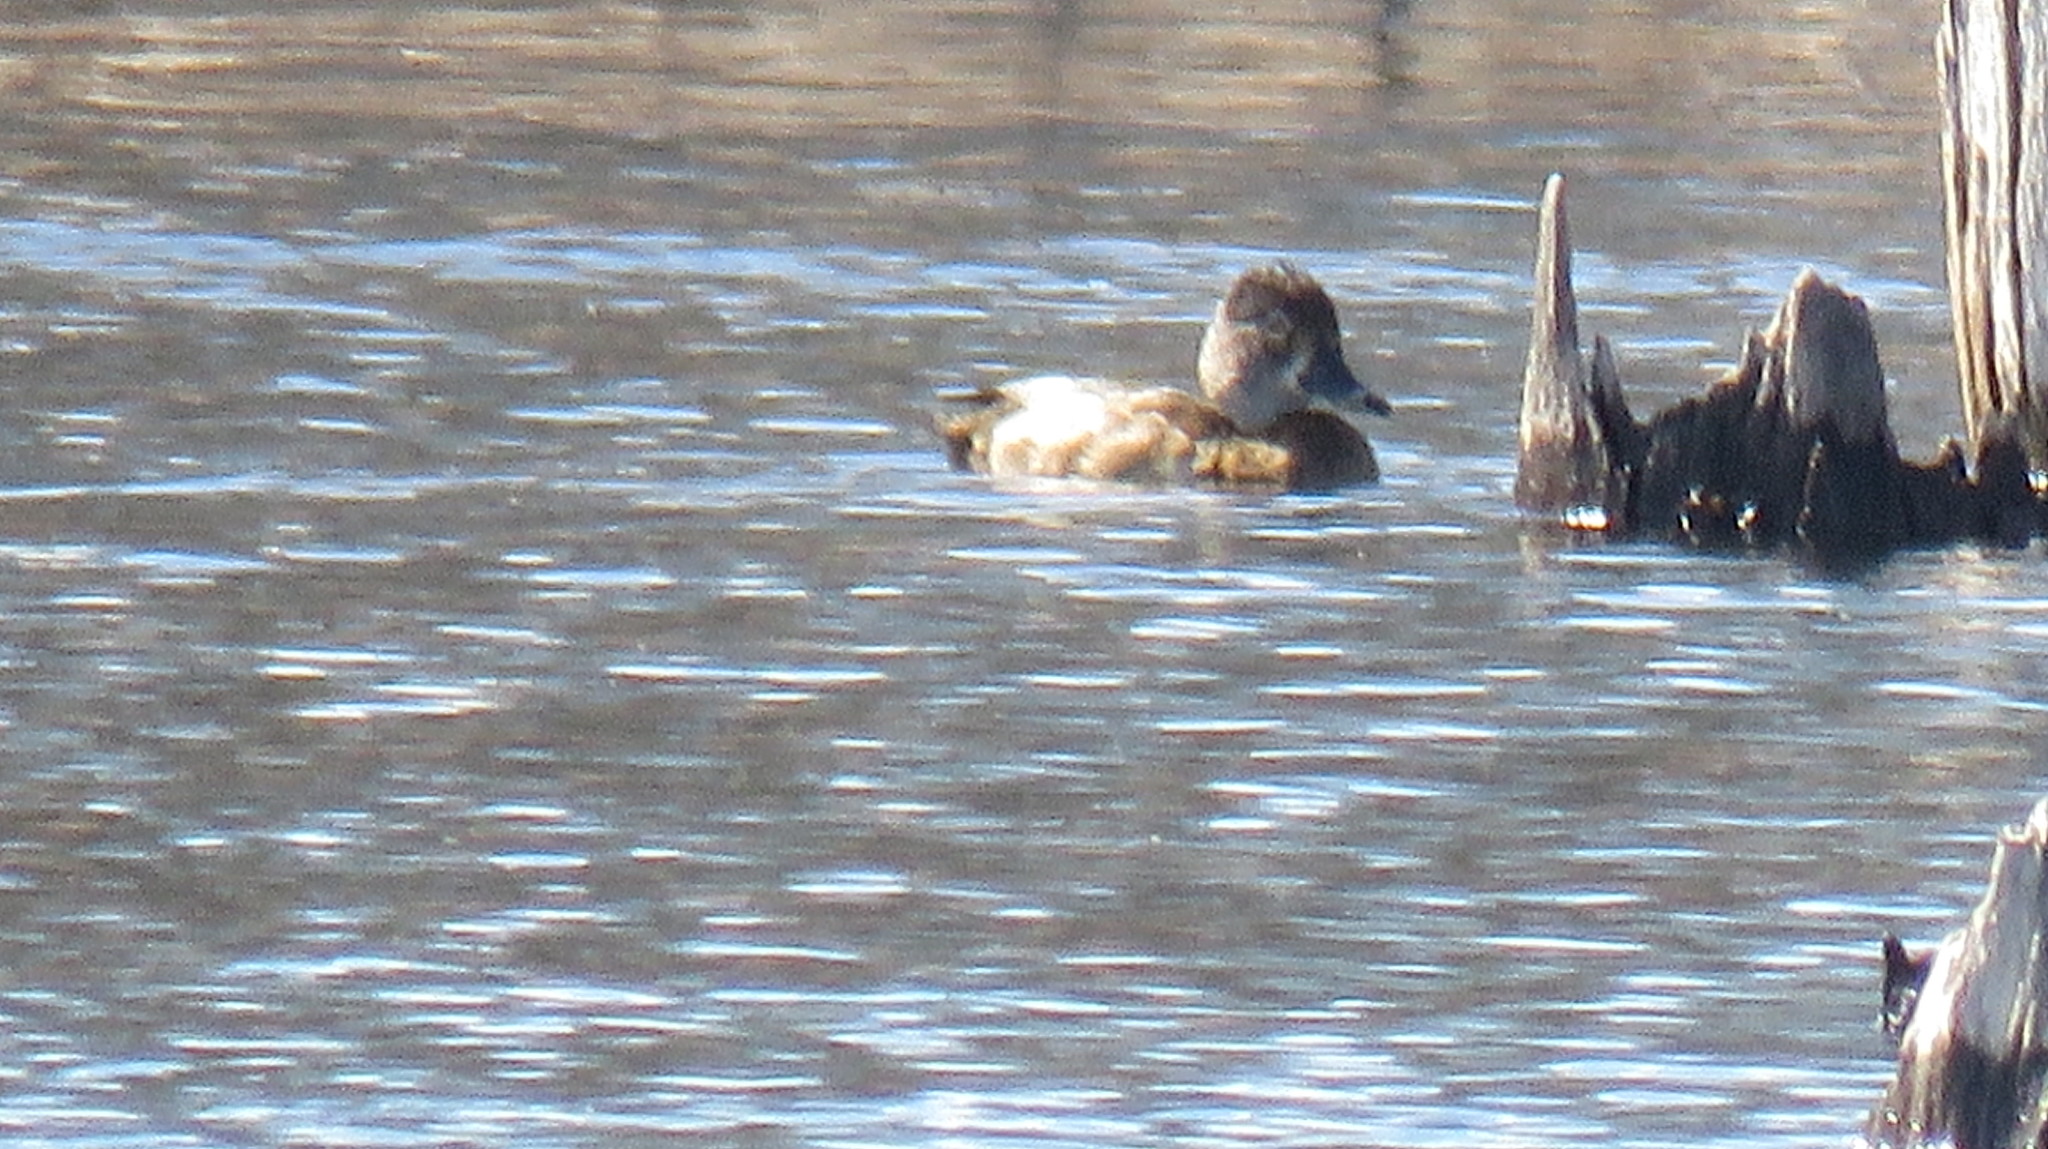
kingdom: Animalia
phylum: Chordata
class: Aves
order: Anseriformes
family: Anatidae
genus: Aythya
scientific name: Aythya collaris
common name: Ring-necked duck
